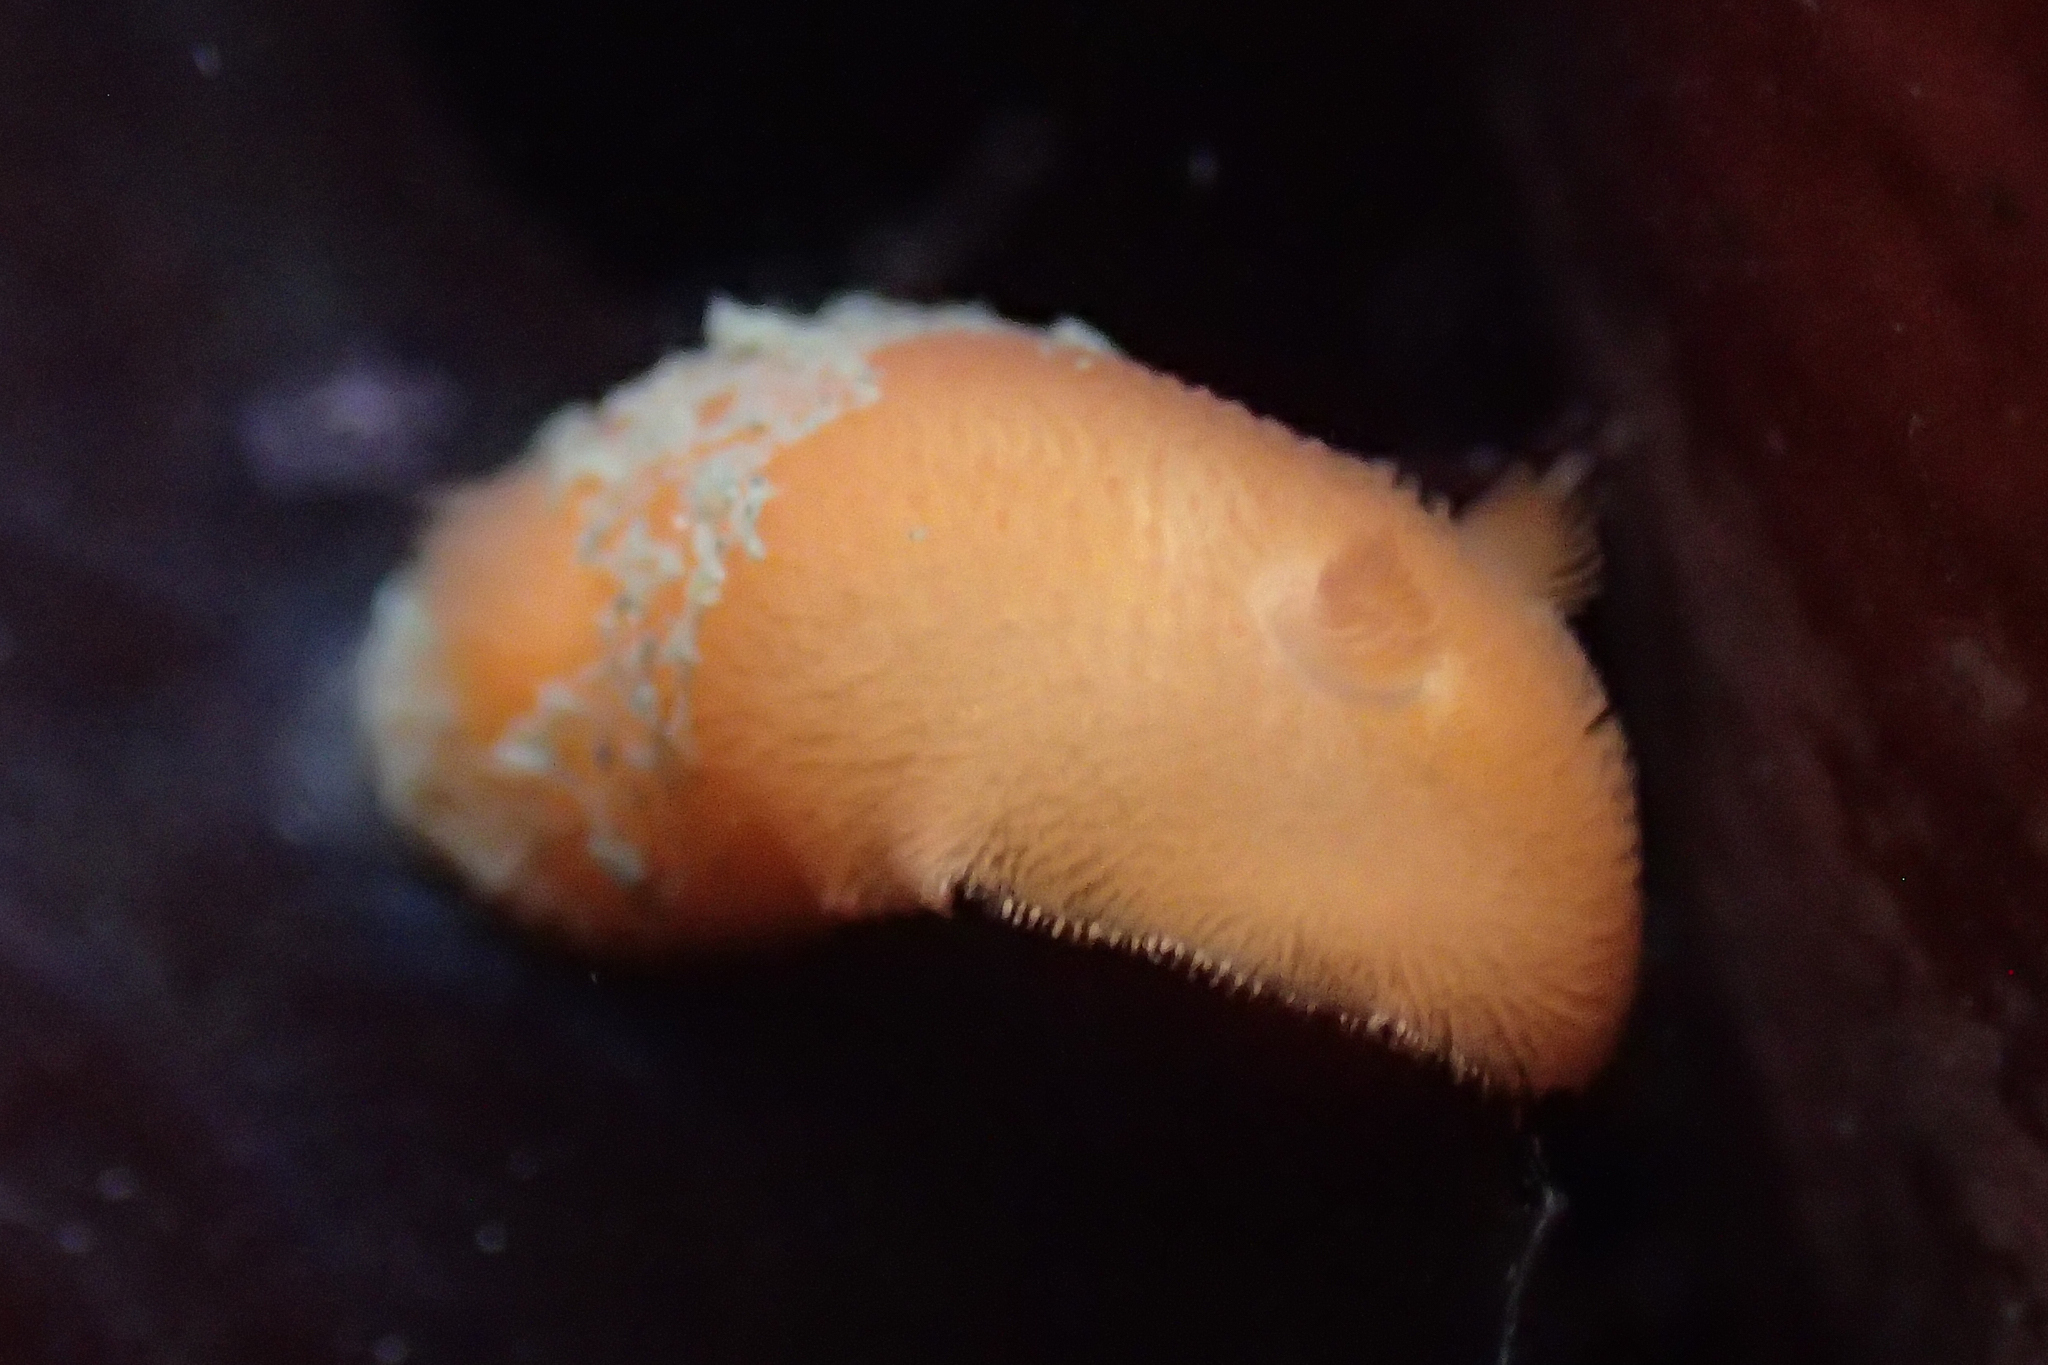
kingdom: Animalia
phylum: Mollusca
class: Gastropoda
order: Nudibranchia
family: Discodorididae
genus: Rostanga
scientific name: Rostanga pulchra
